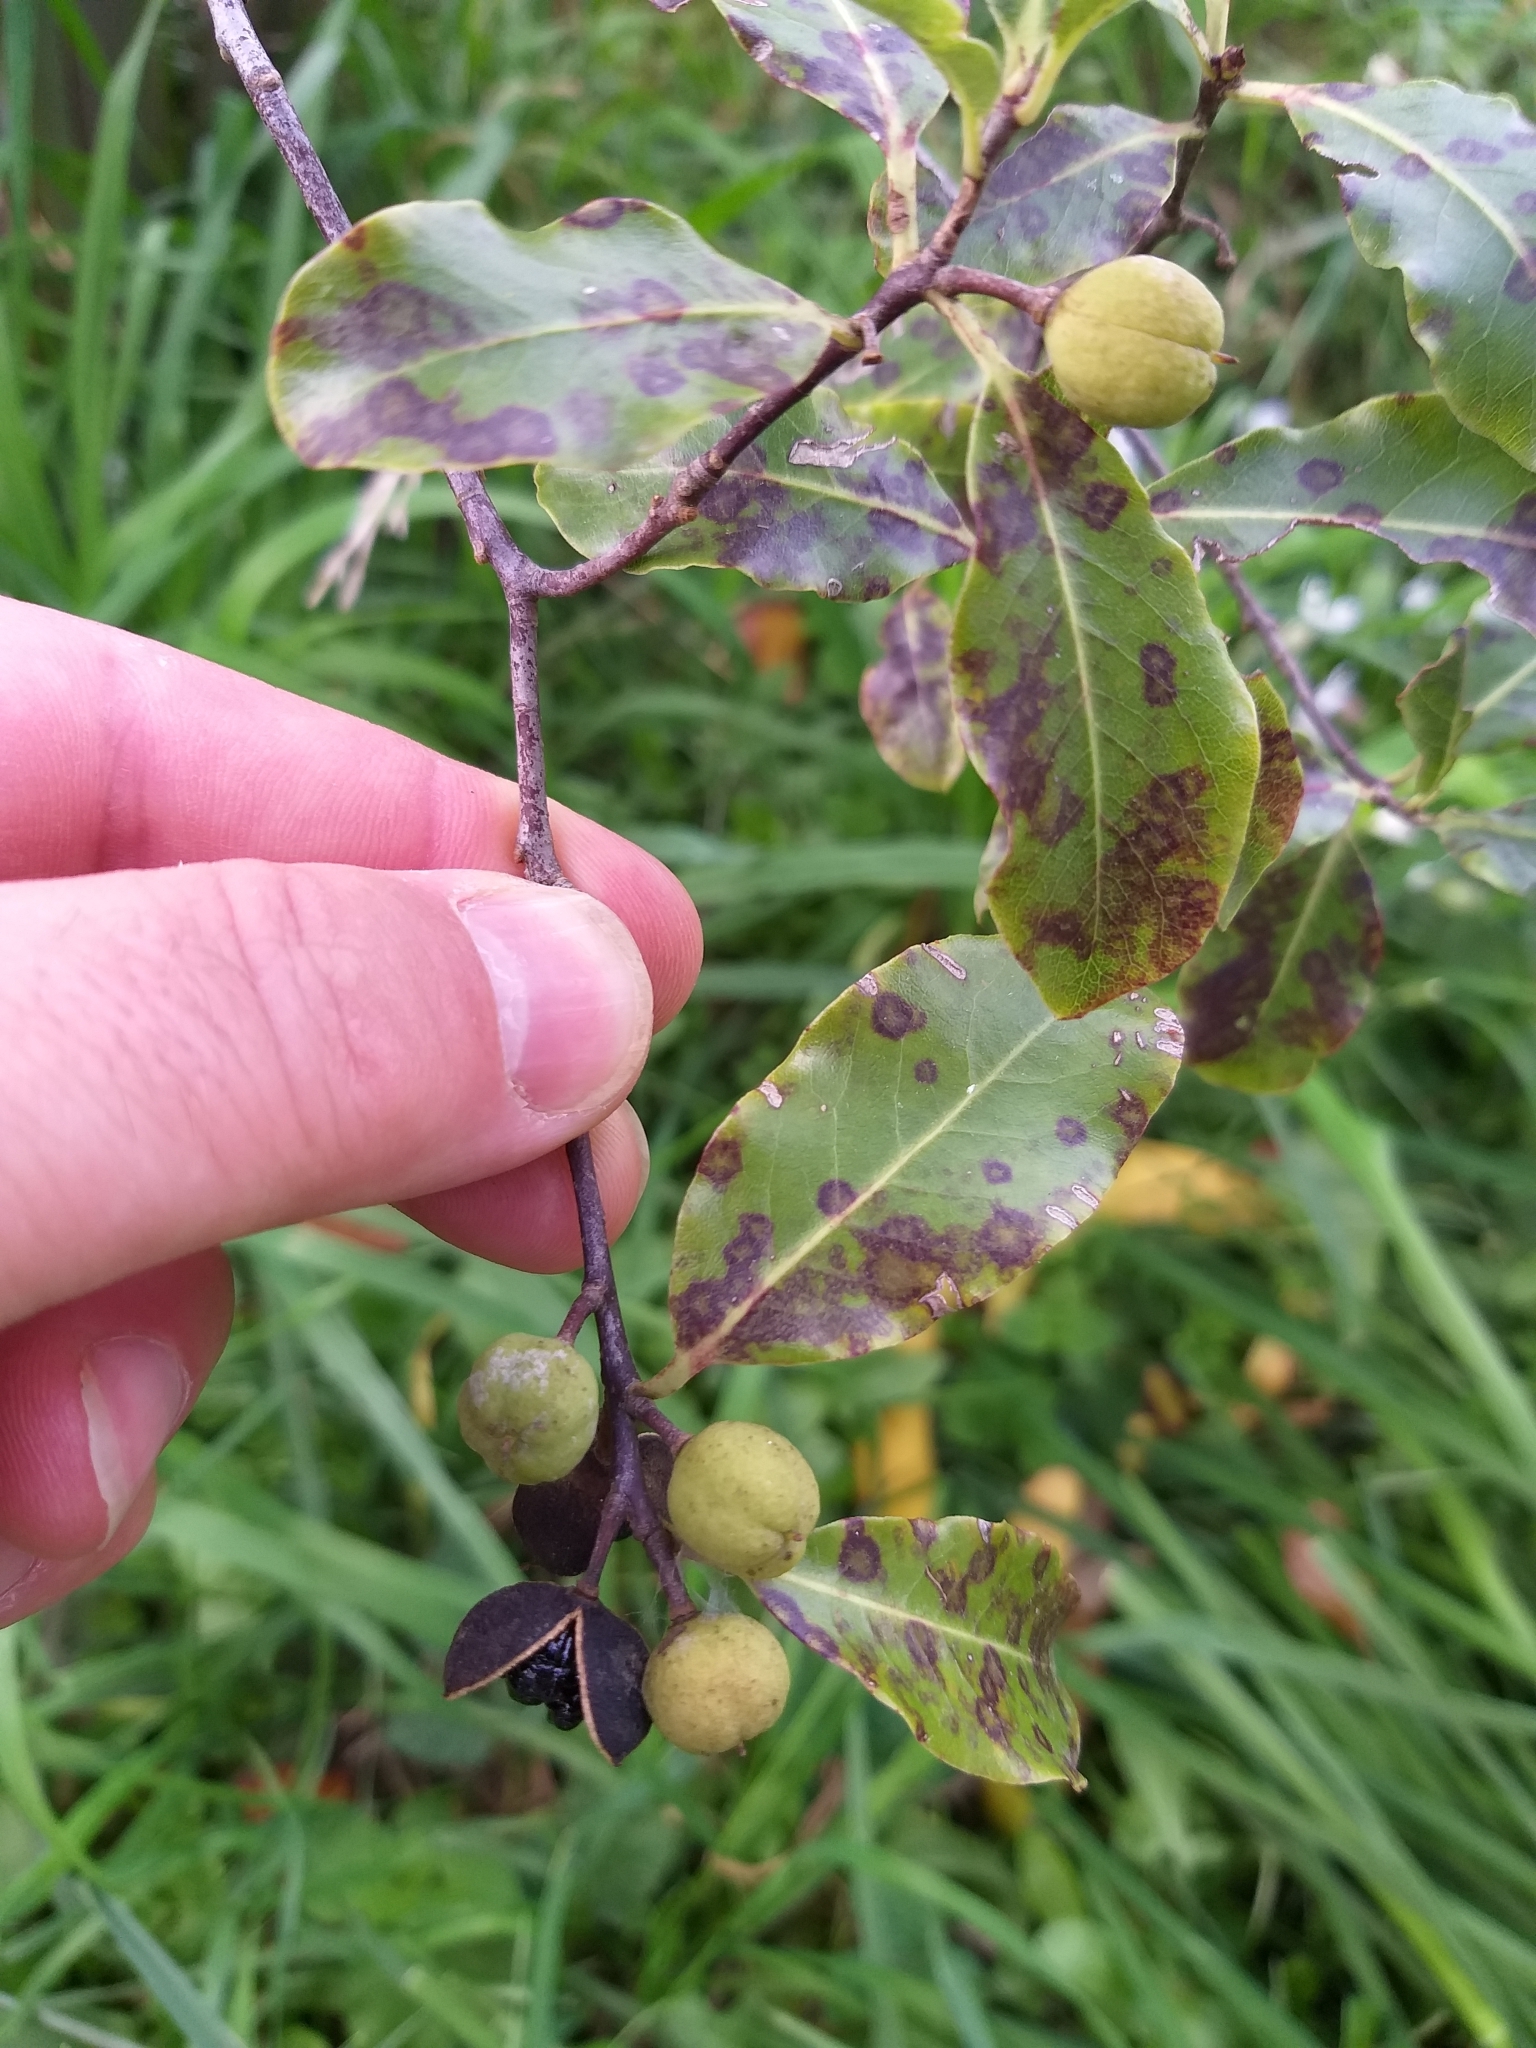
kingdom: Plantae
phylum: Tracheophyta
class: Magnoliopsida
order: Apiales
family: Pittosporaceae
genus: Pittosporum
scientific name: Pittosporum tenuifolium
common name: Kohuhu
